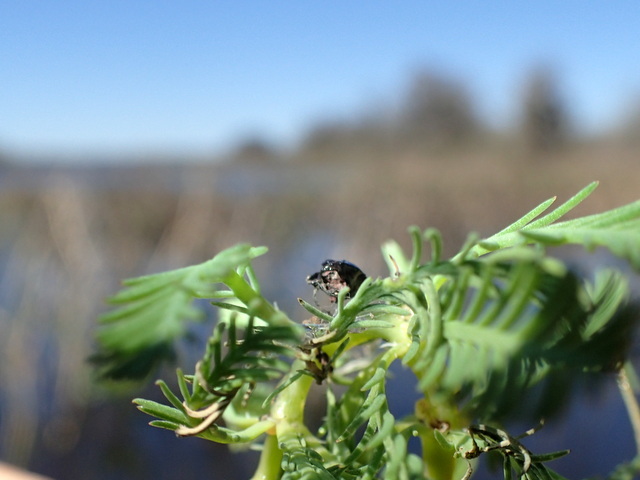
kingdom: Plantae
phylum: Tracheophyta
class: Magnoliopsida
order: Saxifragales
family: Haloragaceae
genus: Myriophyllum
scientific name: Myriophyllum aquaticum
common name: Parrot's feather
